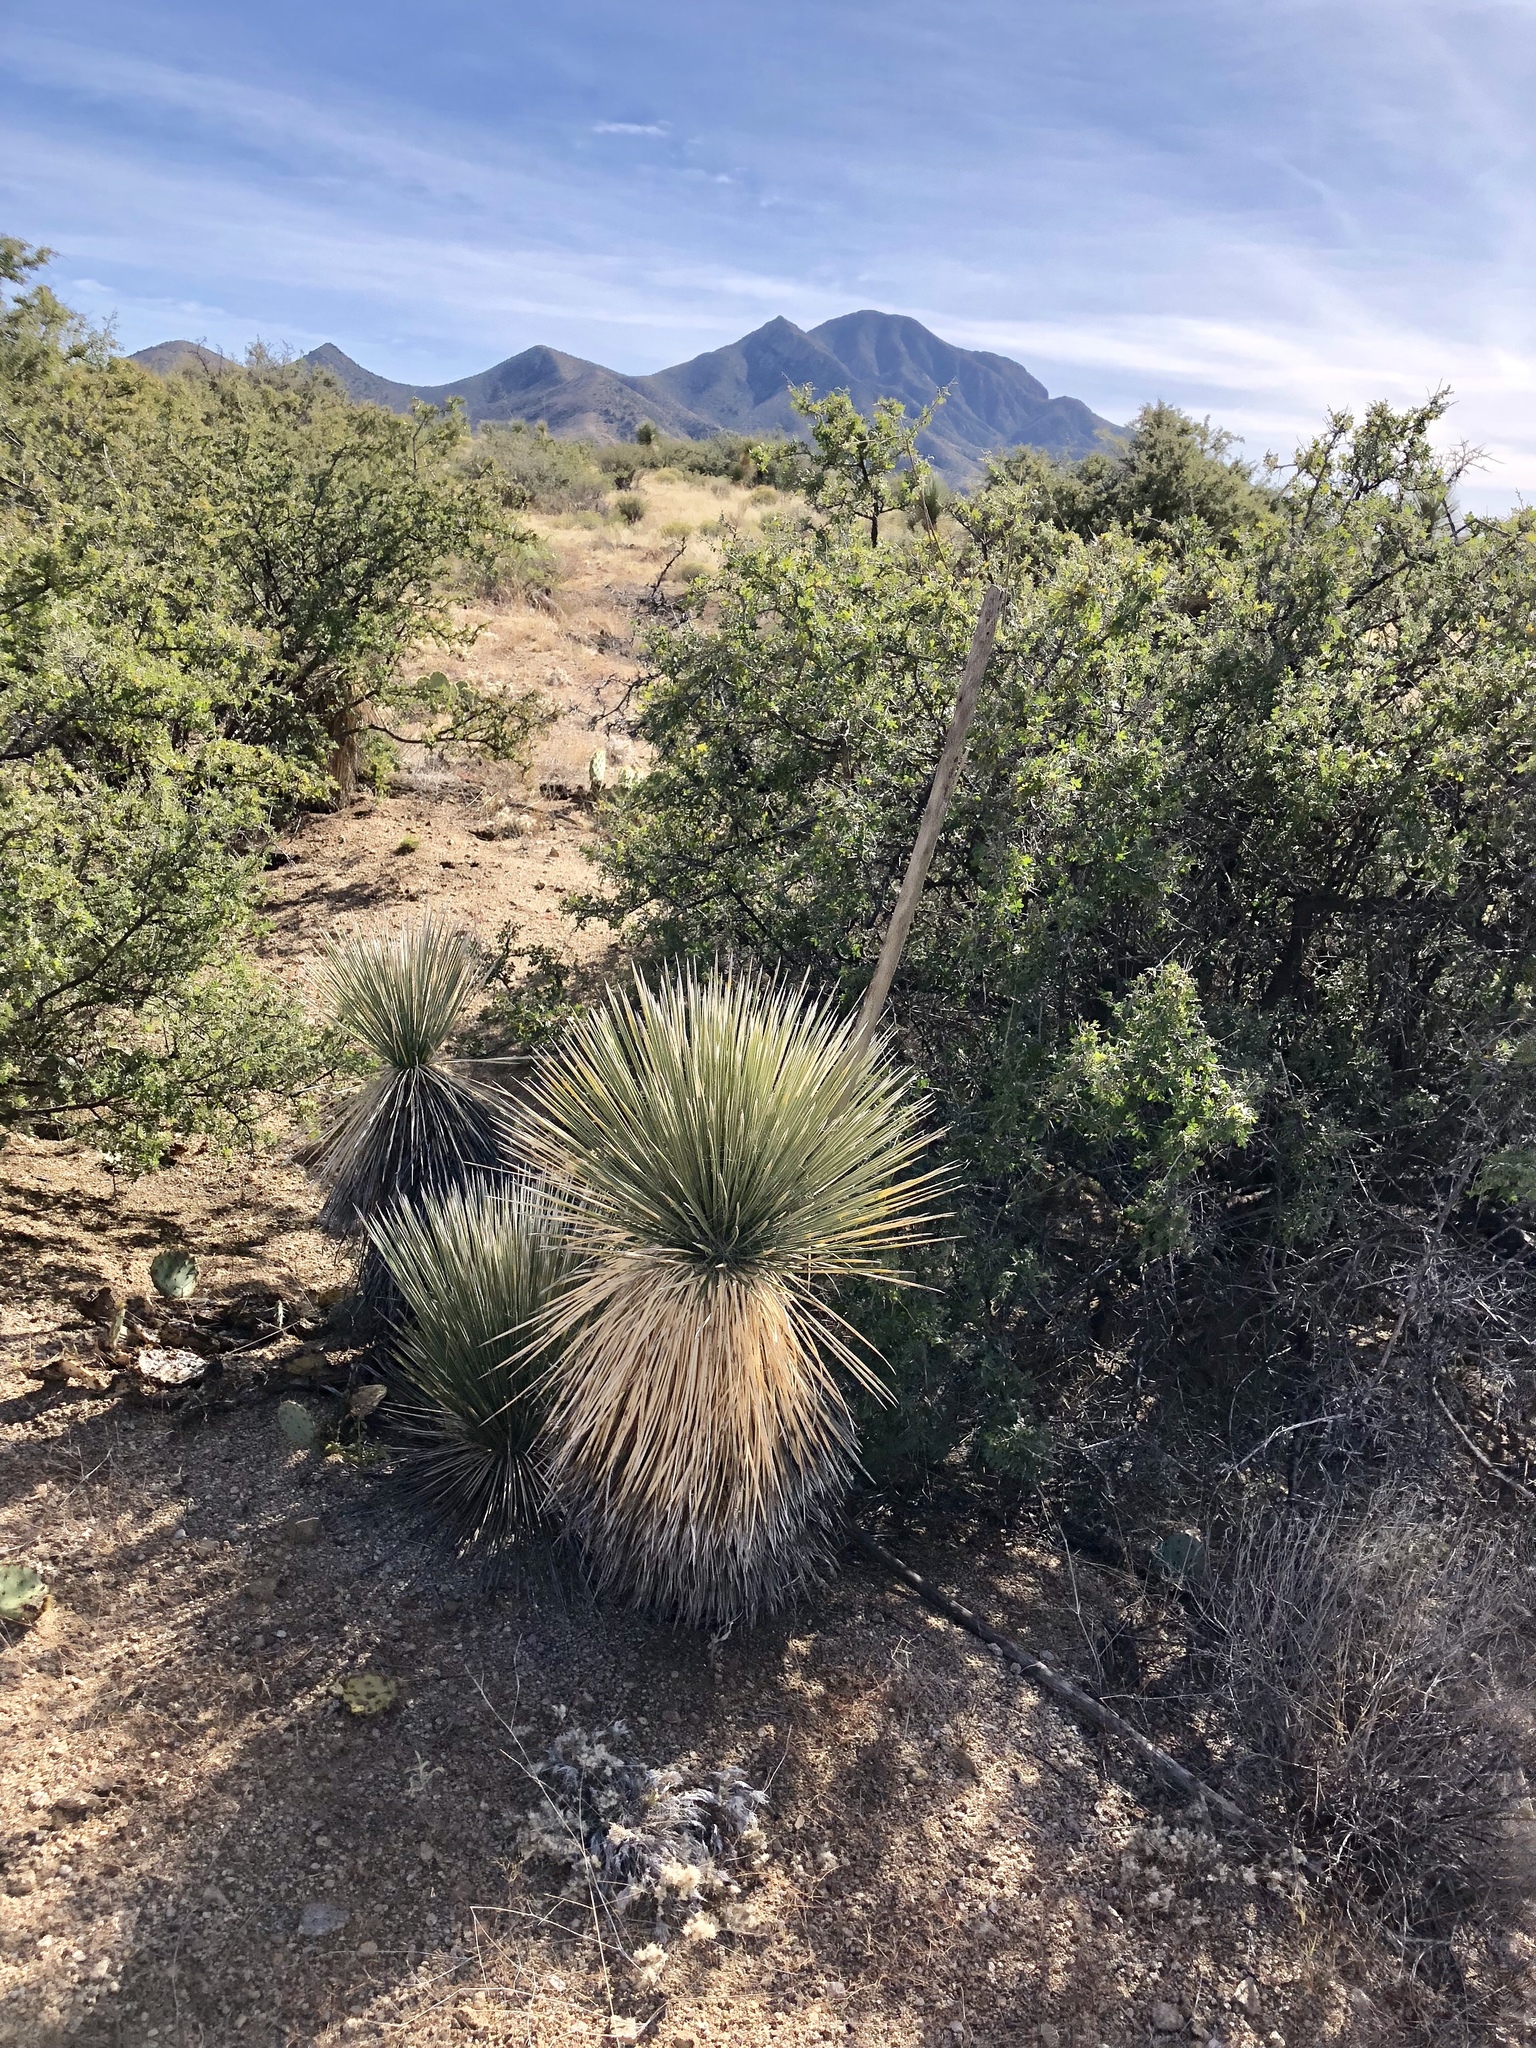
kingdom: Plantae
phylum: Tracheophyta
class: Liliopsida
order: Asparagales
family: Asparagaceae
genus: Yucca
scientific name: Yucca elata
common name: Palmella
